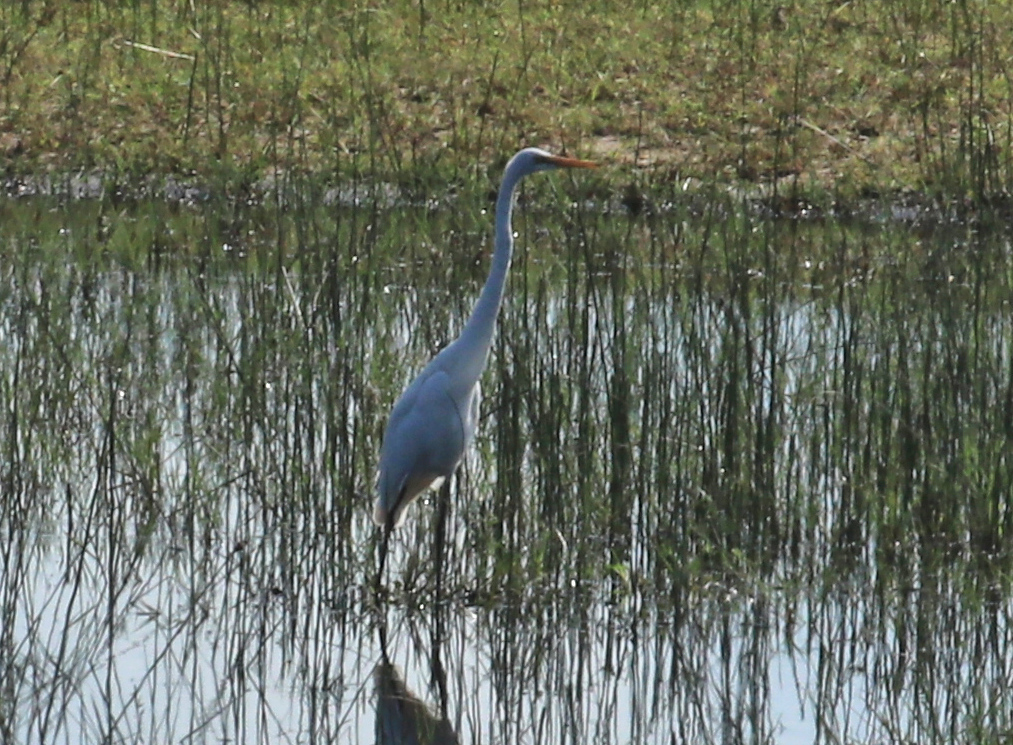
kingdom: Animalia
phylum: Chordata
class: Aves
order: Pelecaniformes
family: Ardeidae
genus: Ardea
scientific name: Ardea alba
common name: Great egret
